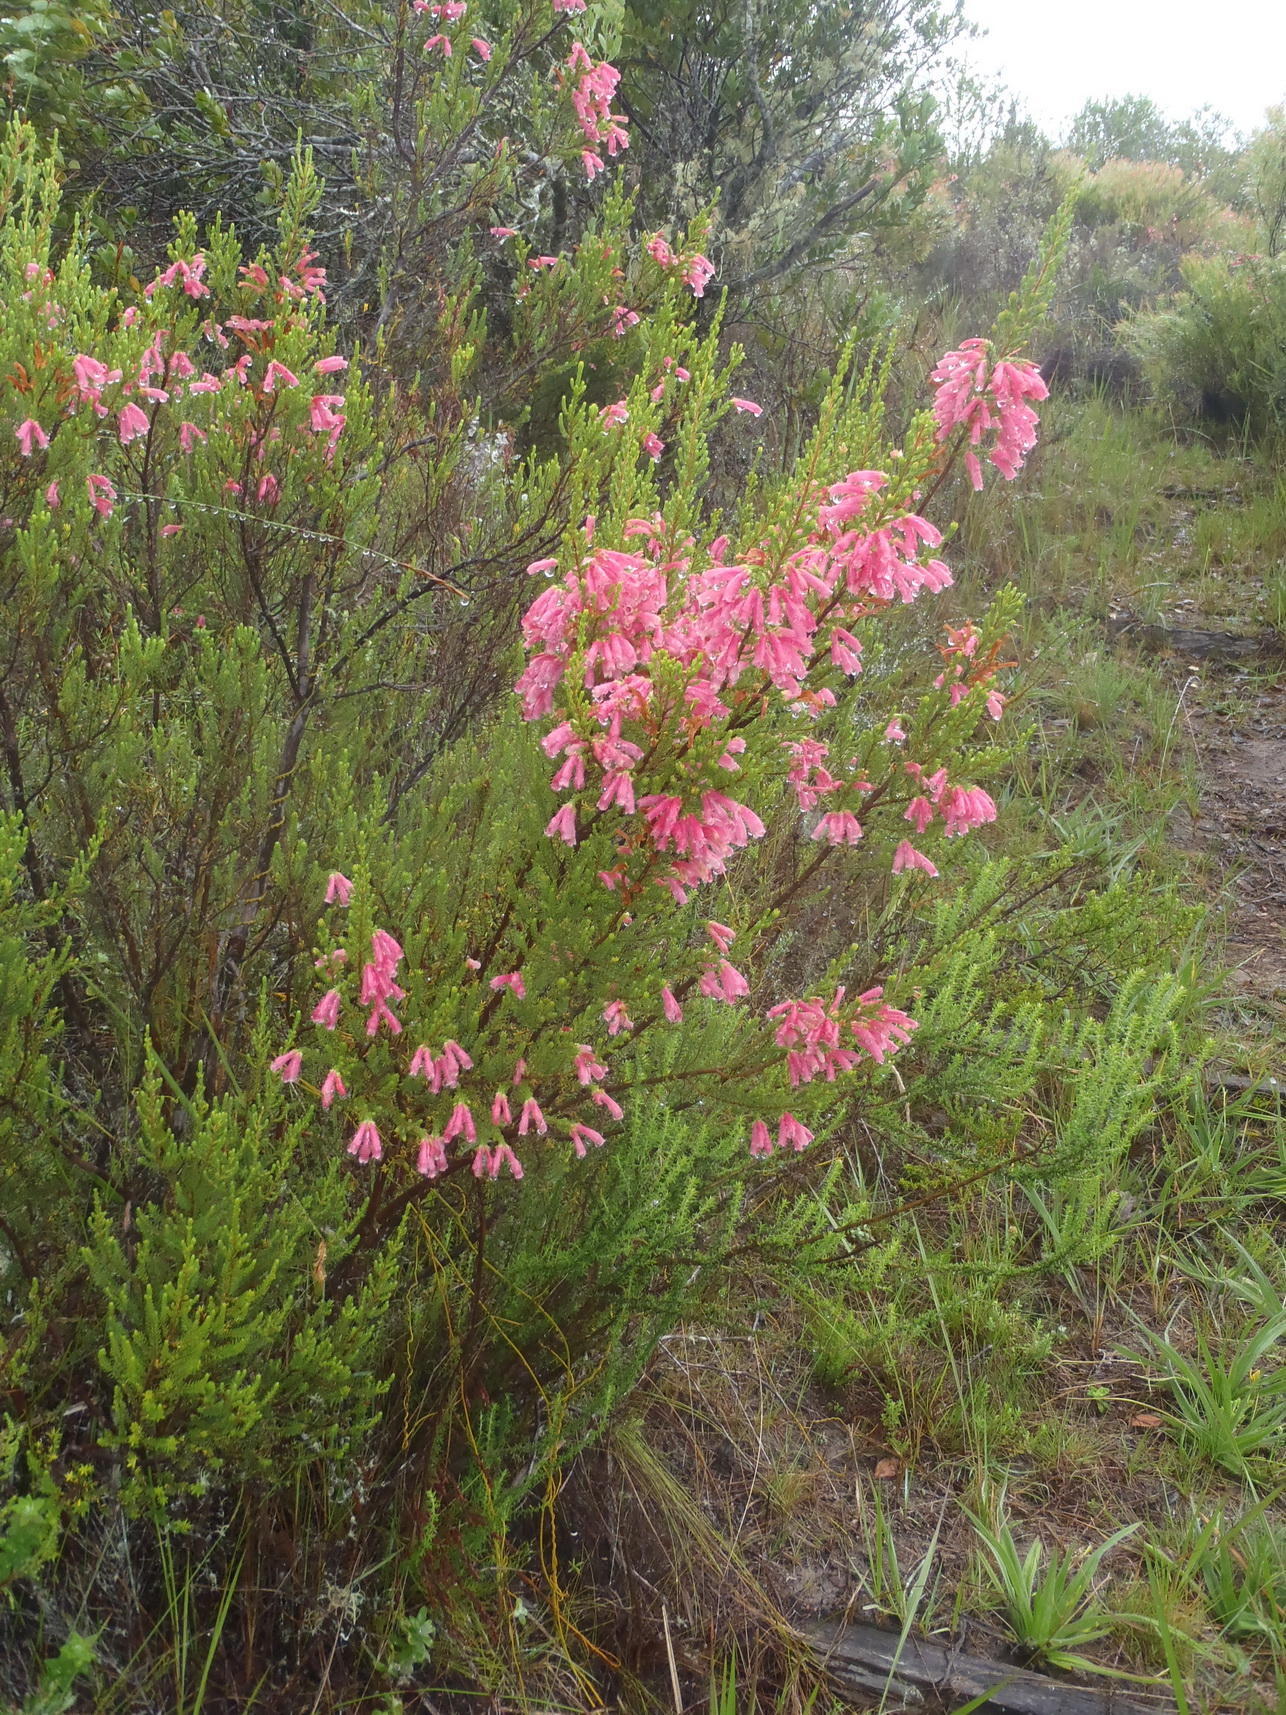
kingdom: Plantae
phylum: Tracheophyta
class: Magnoliopsida
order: Ericales
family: Ericaceae
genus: Erica
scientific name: Erica discolor
